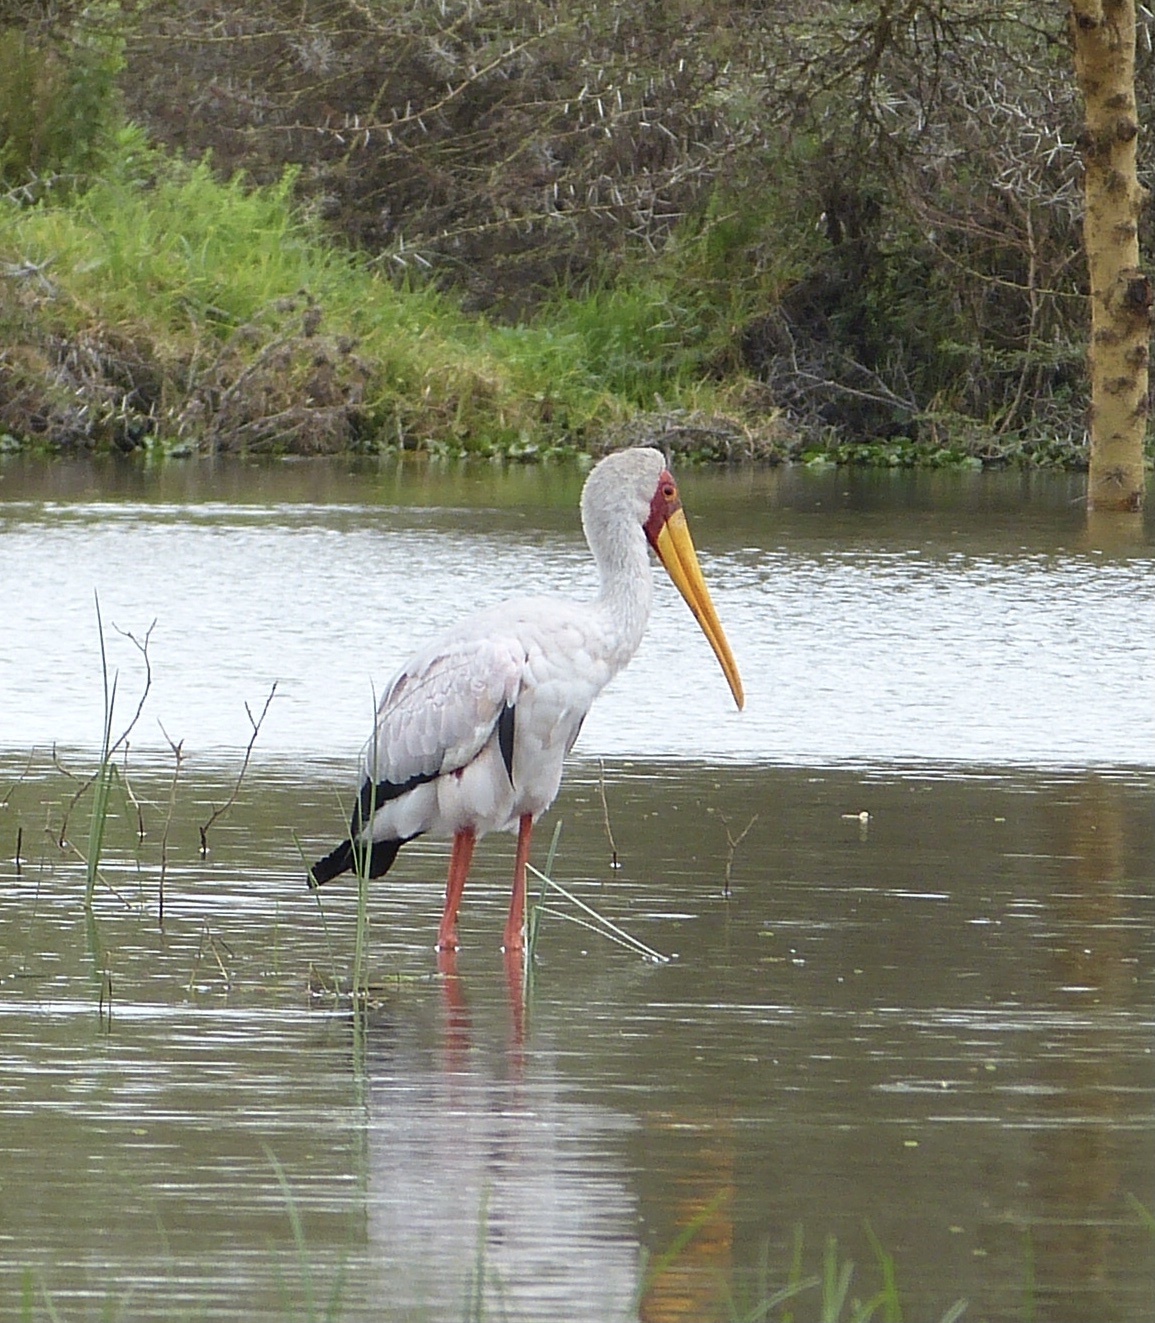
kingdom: Animalia
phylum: Chordata
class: Aves
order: Ciconiiformes
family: Ciconiidae
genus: Mycteria
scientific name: Mycteria ibis
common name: Yellow-billed stork
